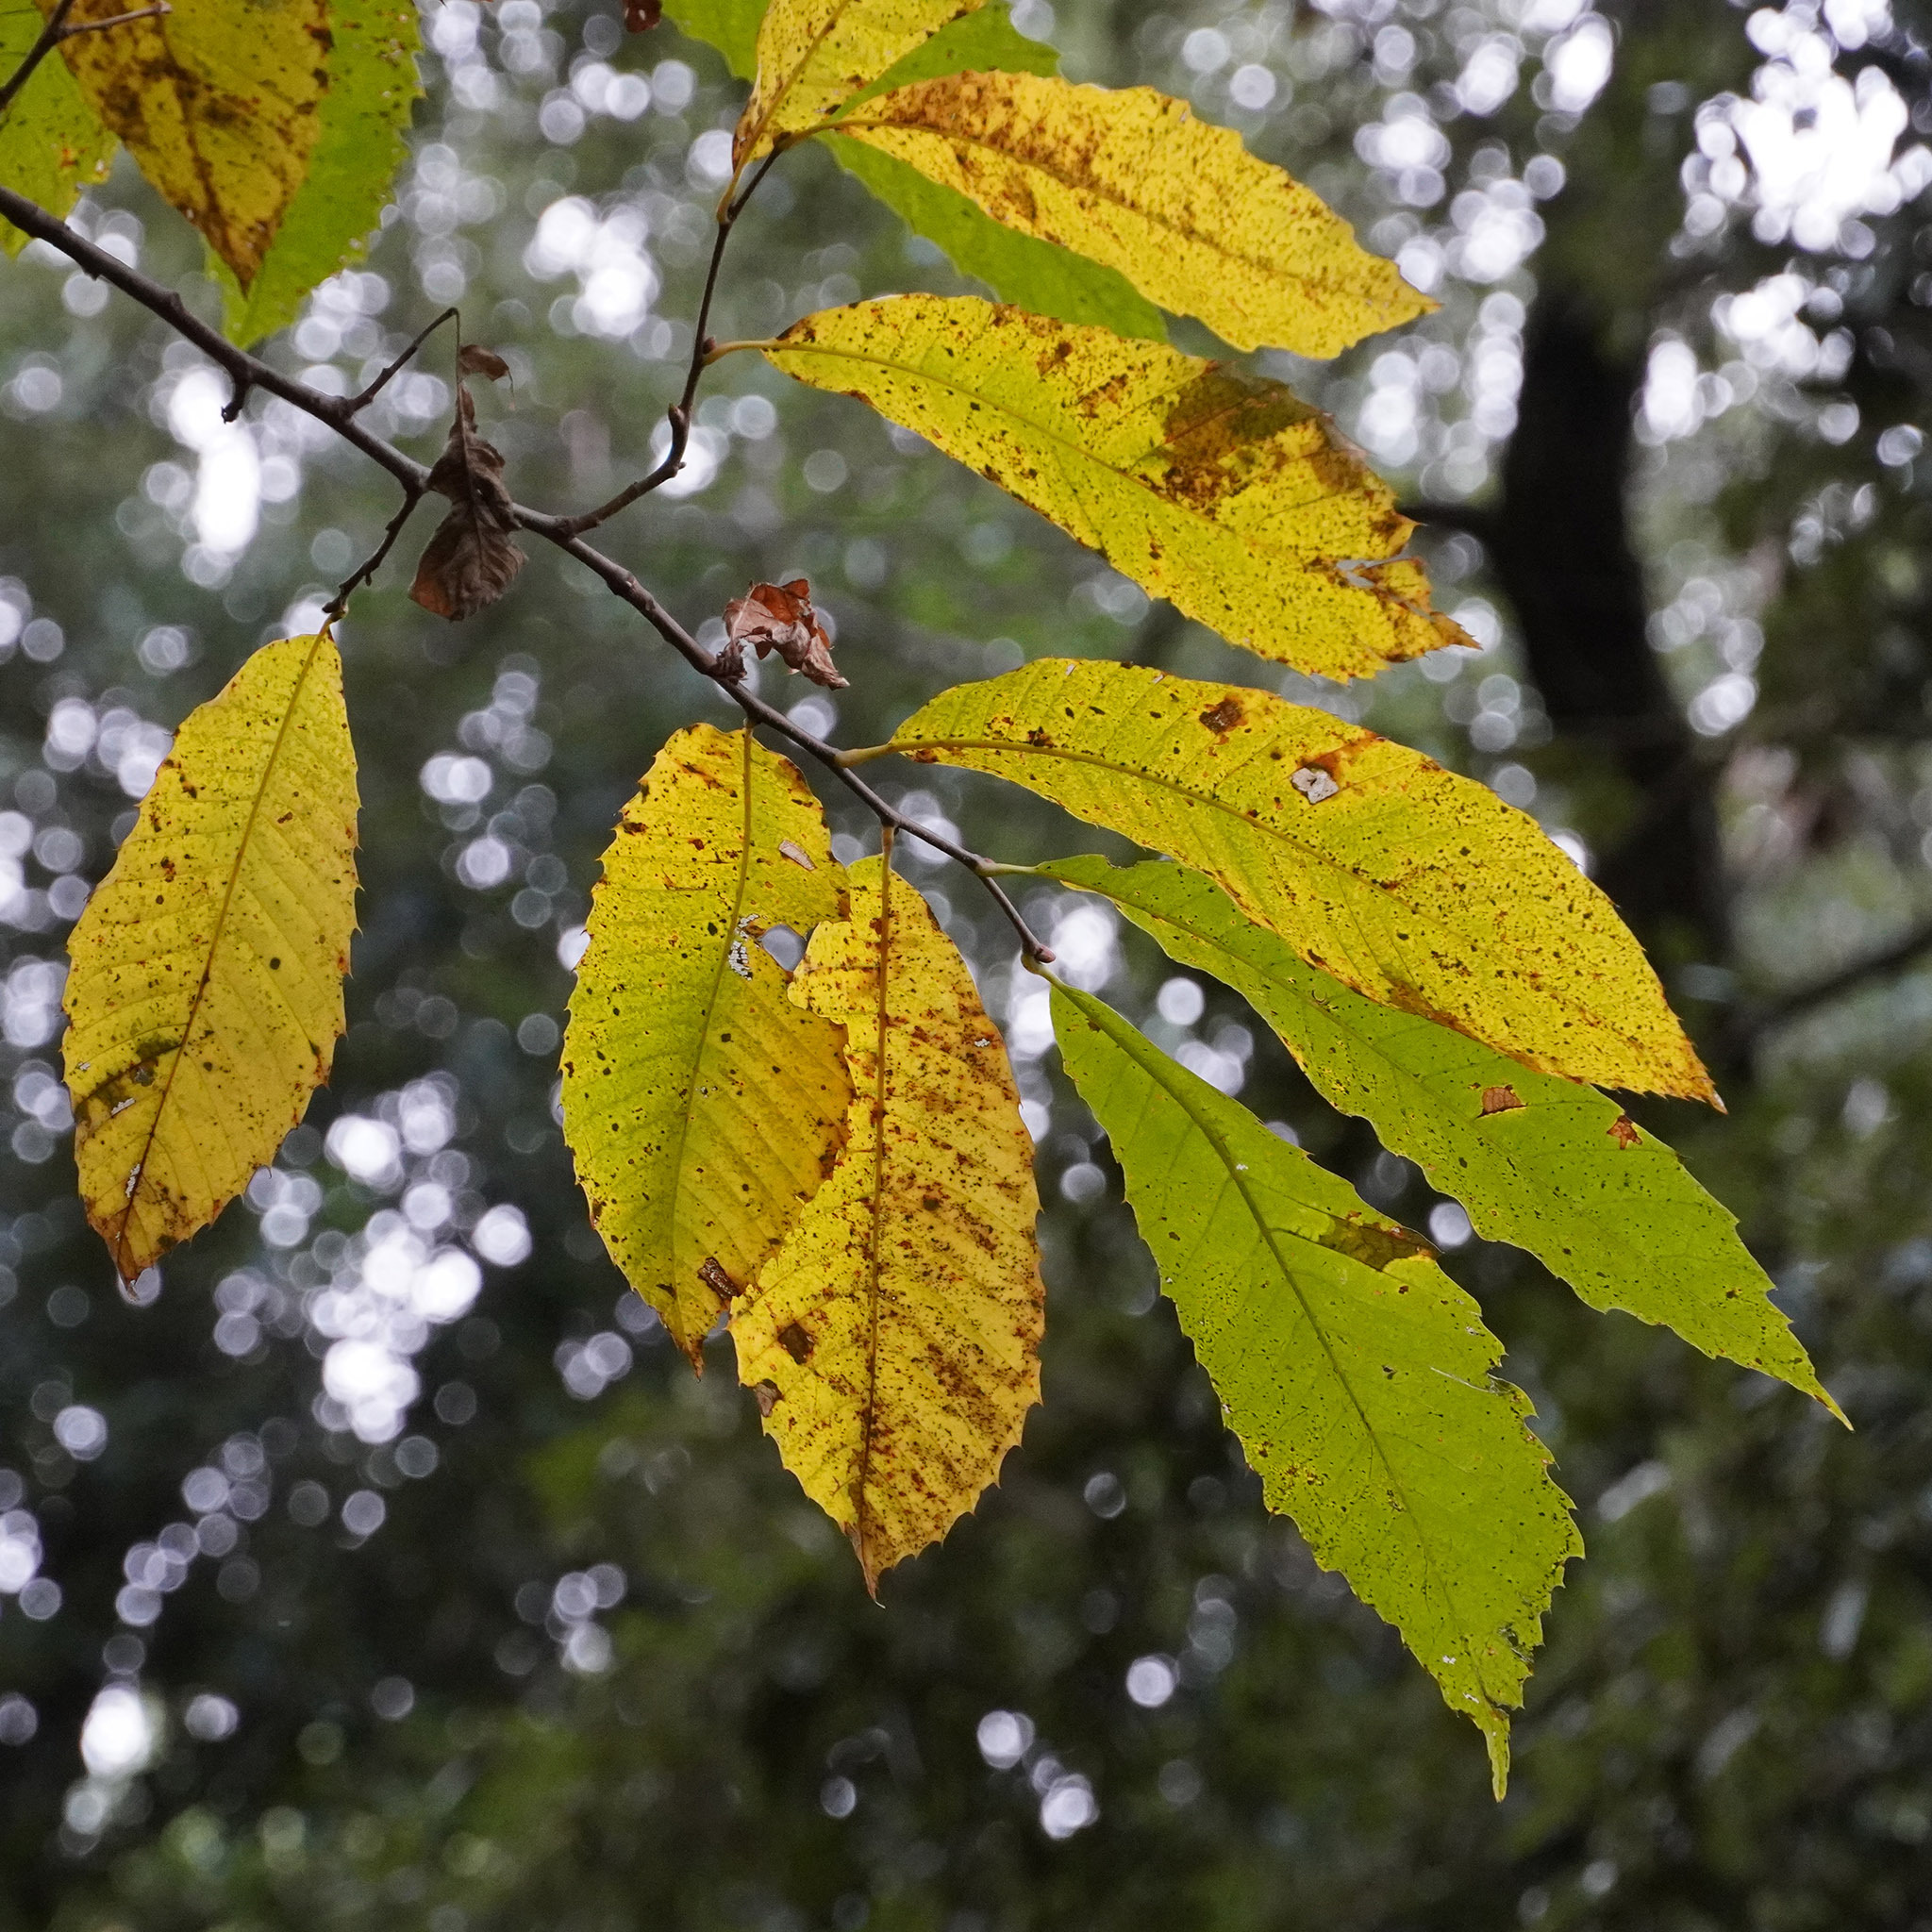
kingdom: Plantae
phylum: Tracheophyta
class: Magnoliopsida
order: Fagales
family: Fagaceae
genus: Castanea
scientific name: Castanea sativa
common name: Sweet chestnut
